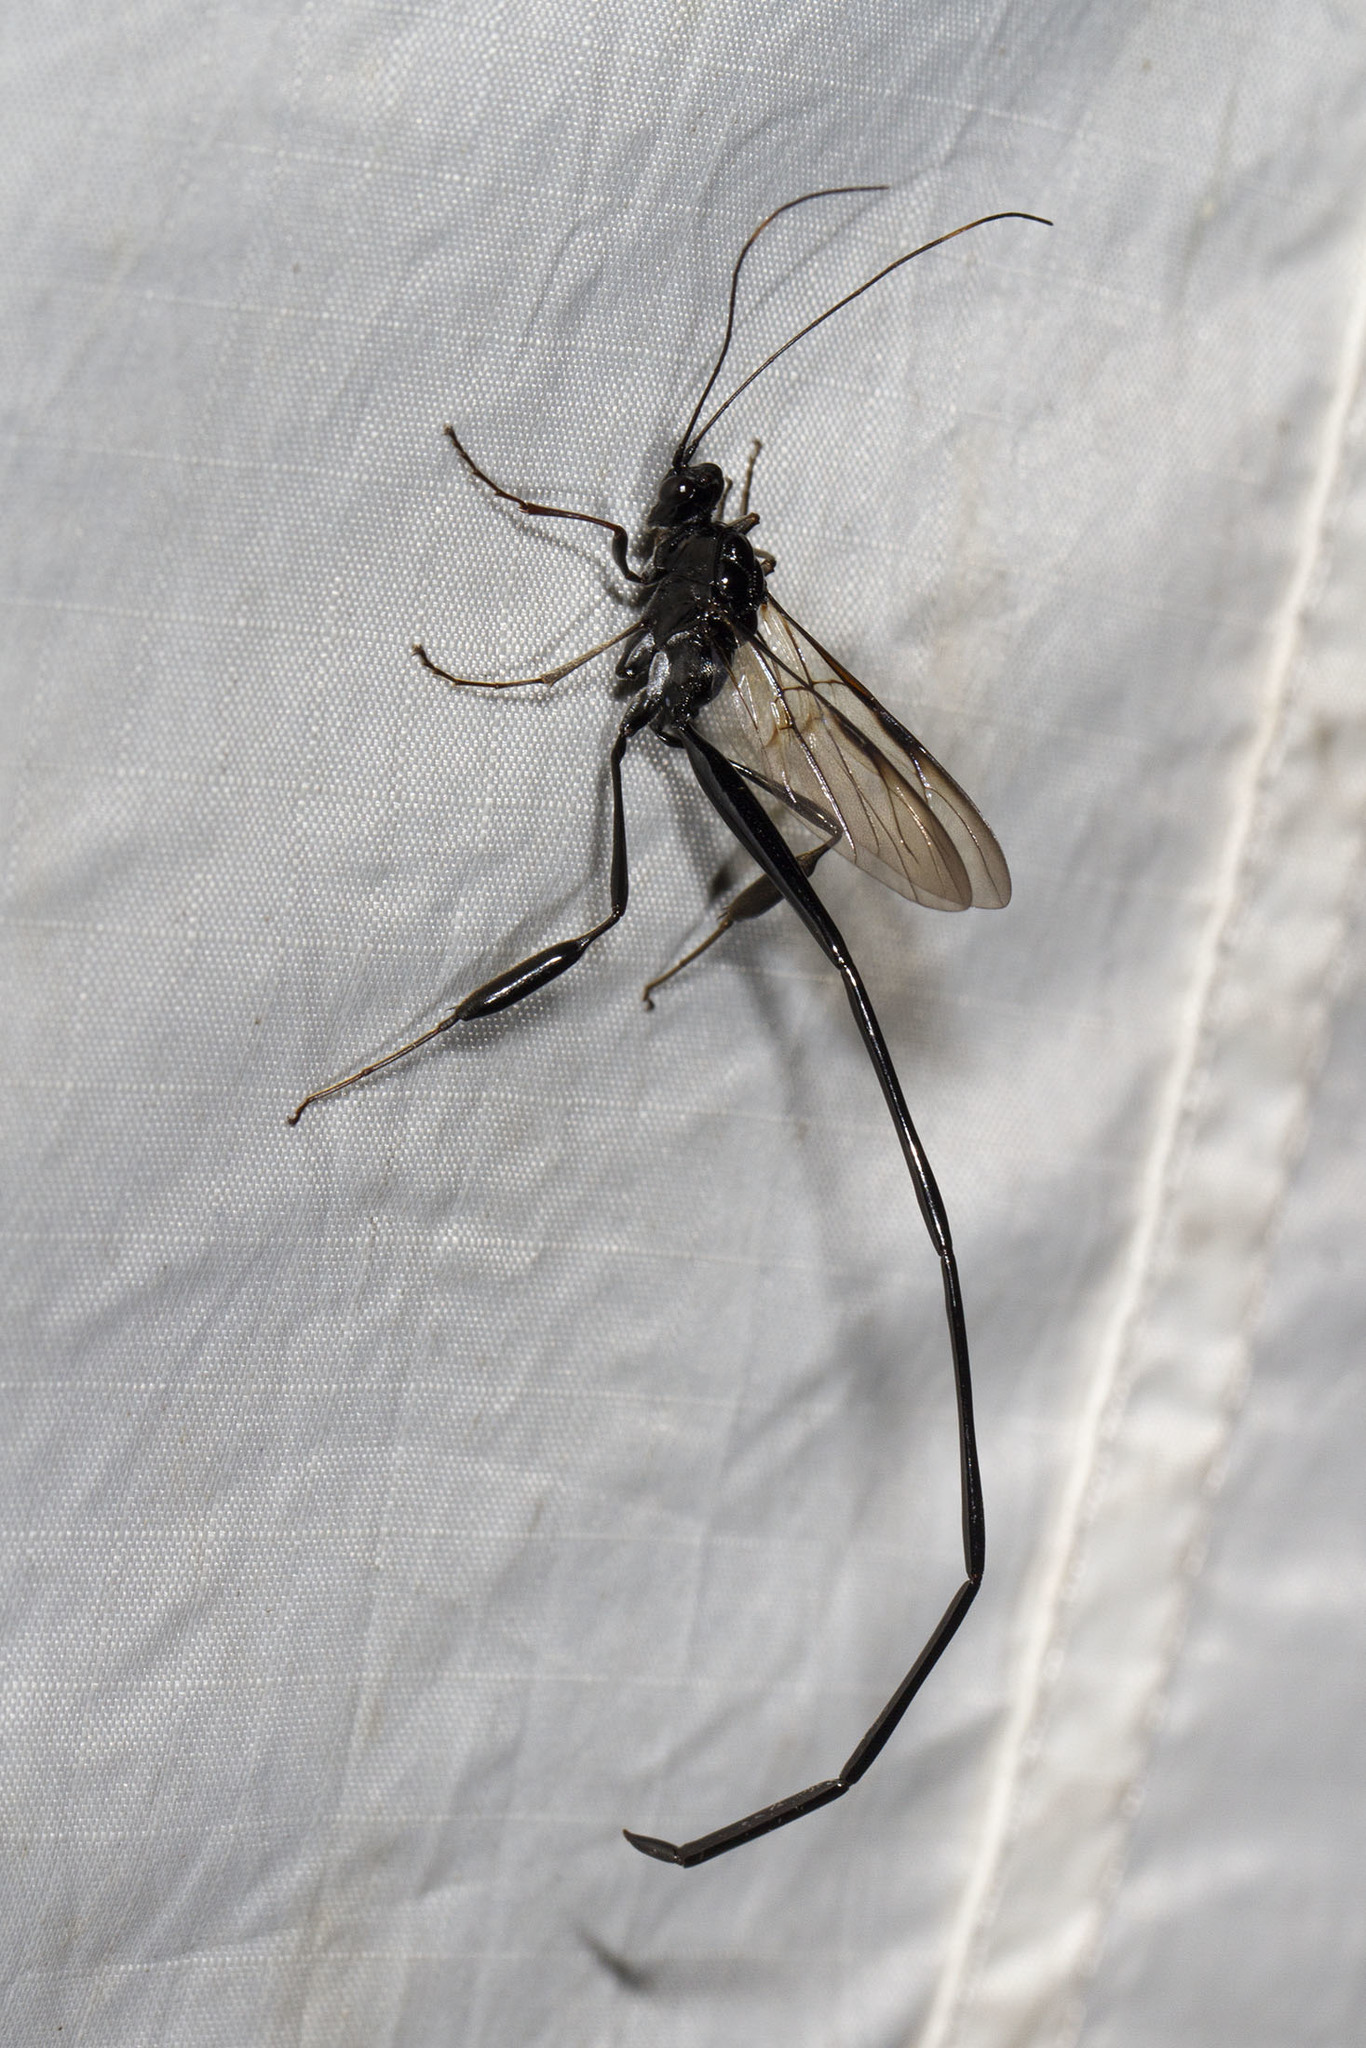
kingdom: Animalia
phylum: Arthropoda
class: Insecta
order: Hymenoptera
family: Pelecinidae
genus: Pelecinus
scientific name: Pelecinus polyturator
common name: American pelecinid wasp
